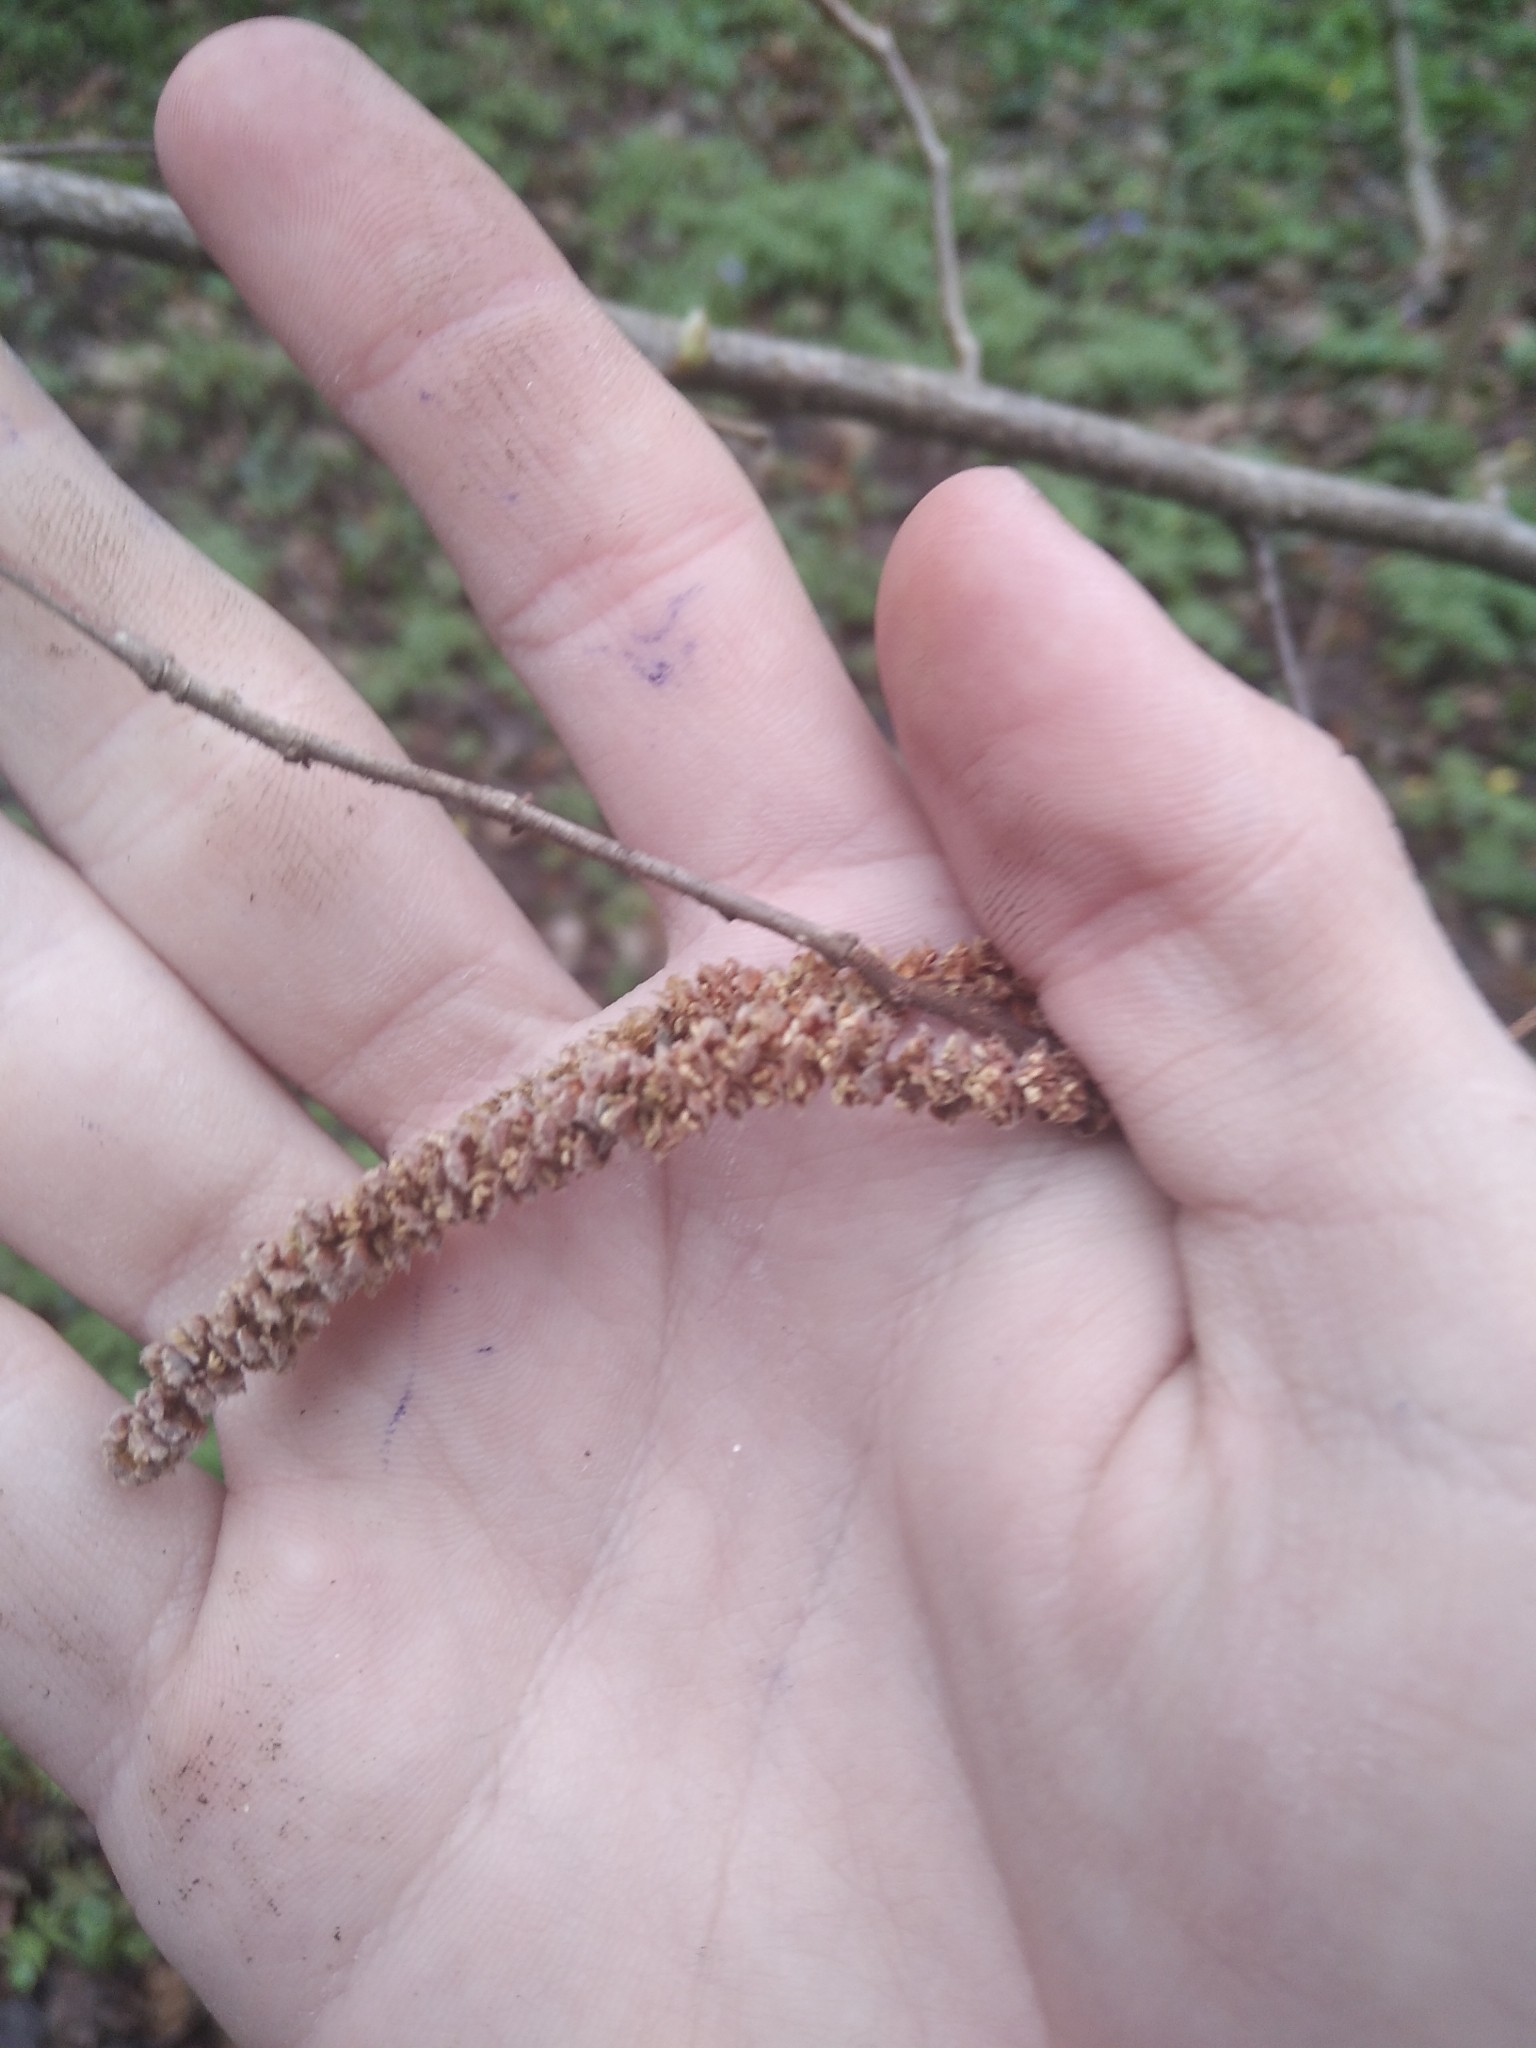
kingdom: Plantae
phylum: Tracheophyta
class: Magnoliopsida
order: Fagales
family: Betulaceae
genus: Corylus
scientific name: Corylus avellana
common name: European hazel
